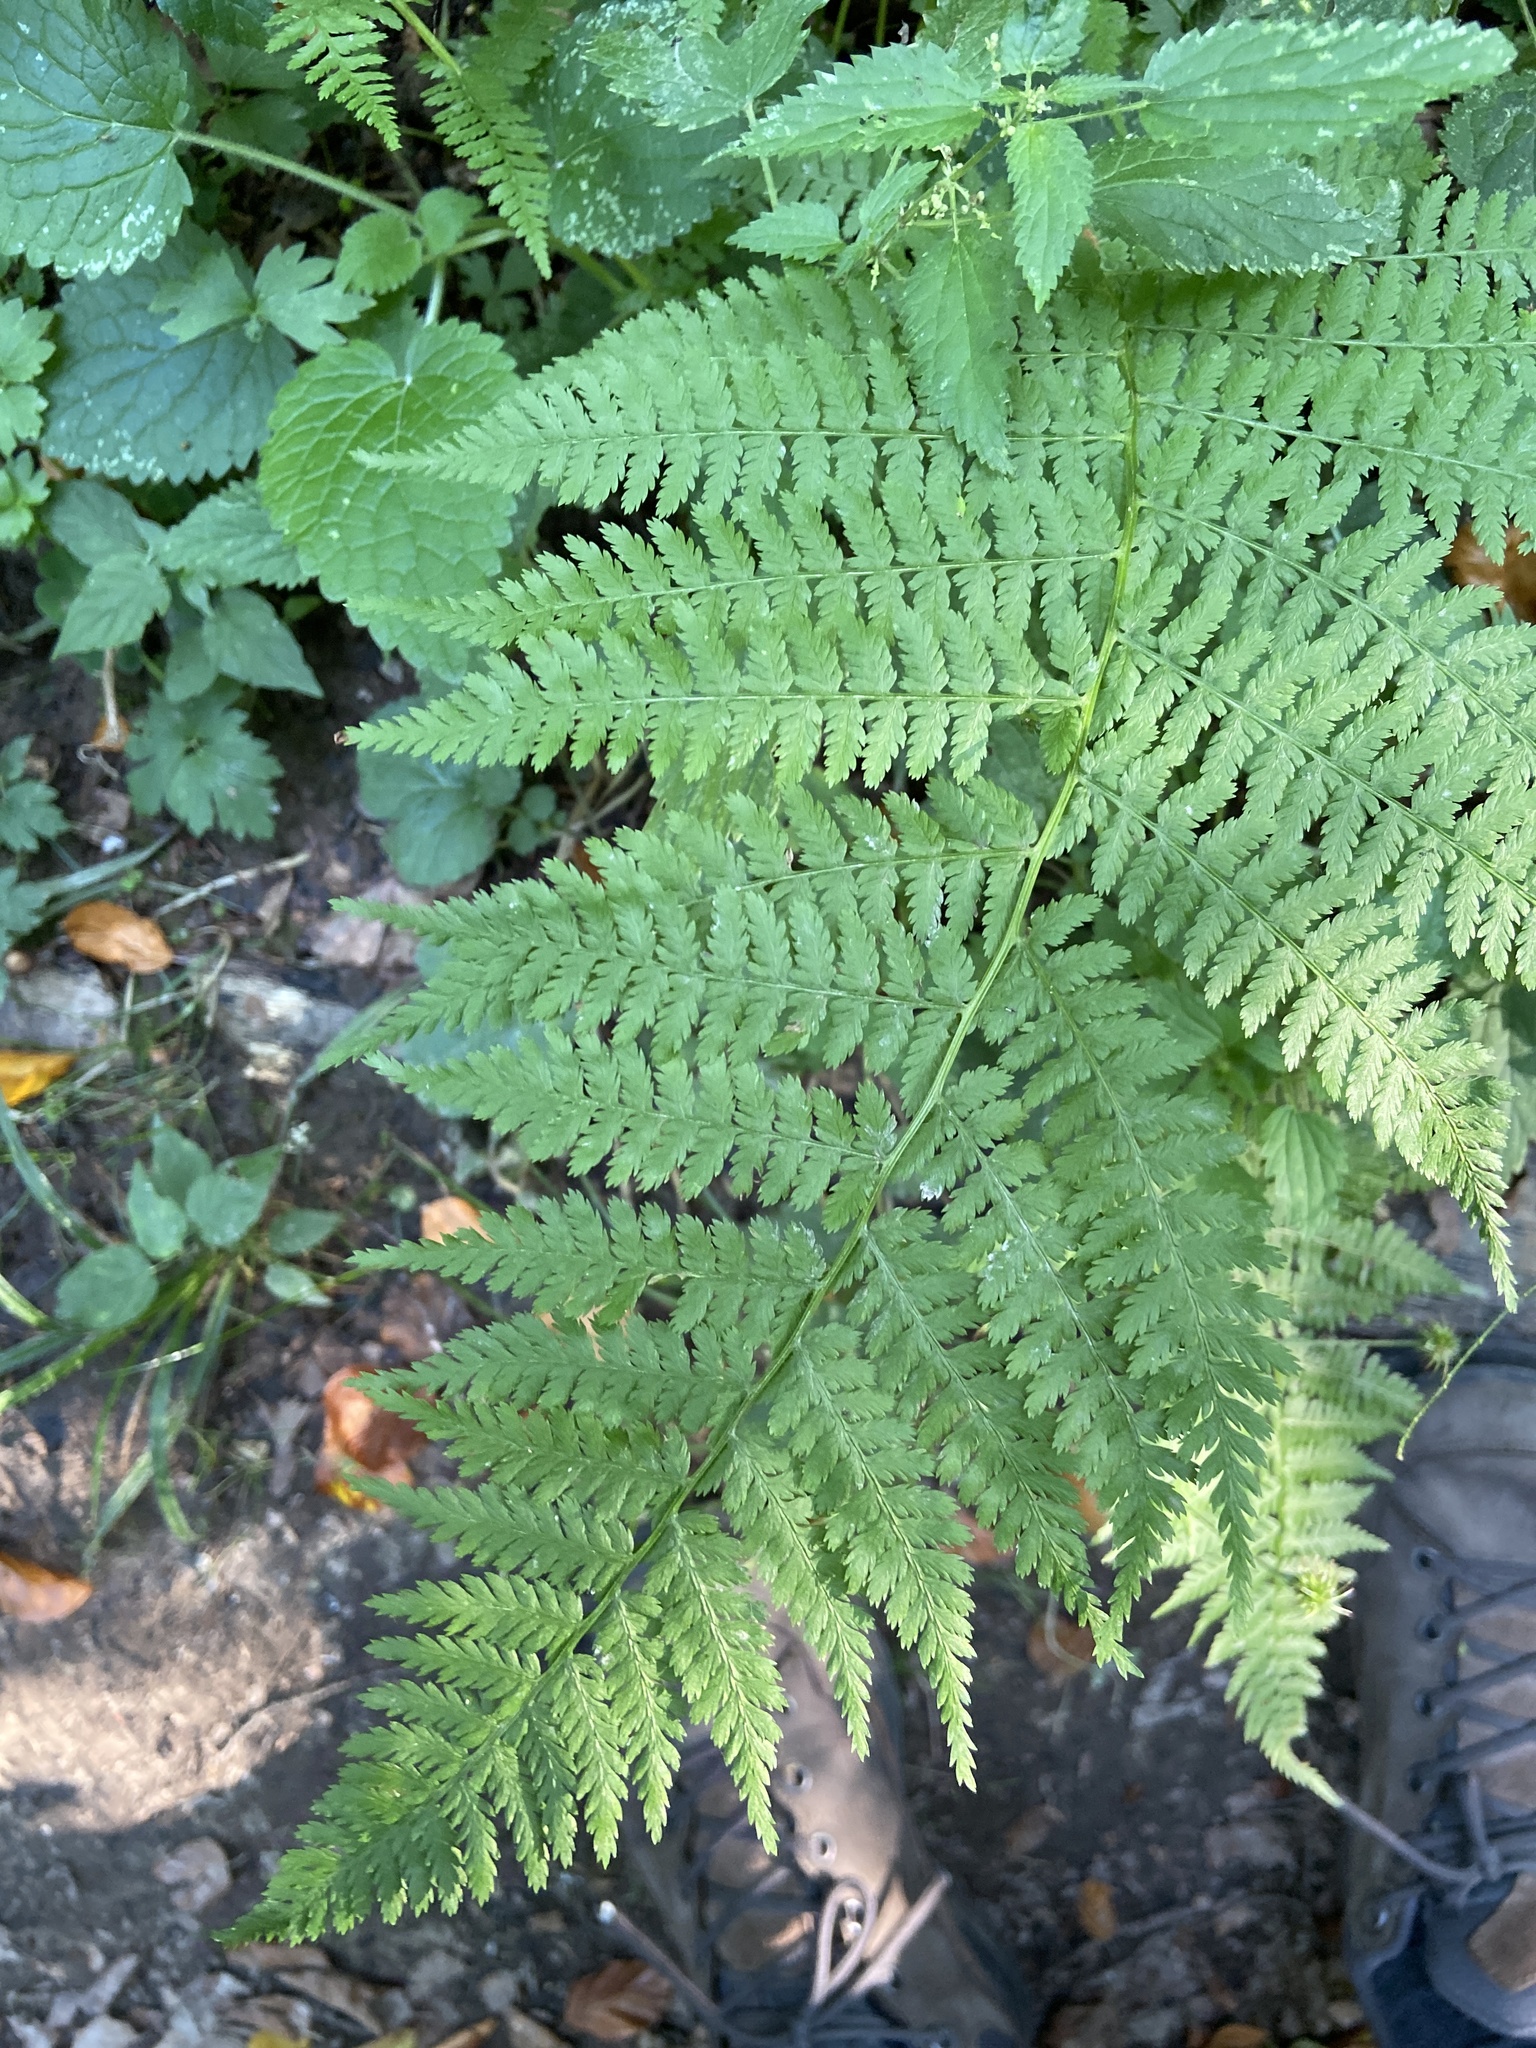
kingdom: Plantae
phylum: Tracheophyta
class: Polypodiopsida
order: Polypodiales
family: Athyriaceae
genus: Athyrium
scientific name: Athyrium filix-femina
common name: Lady fern
